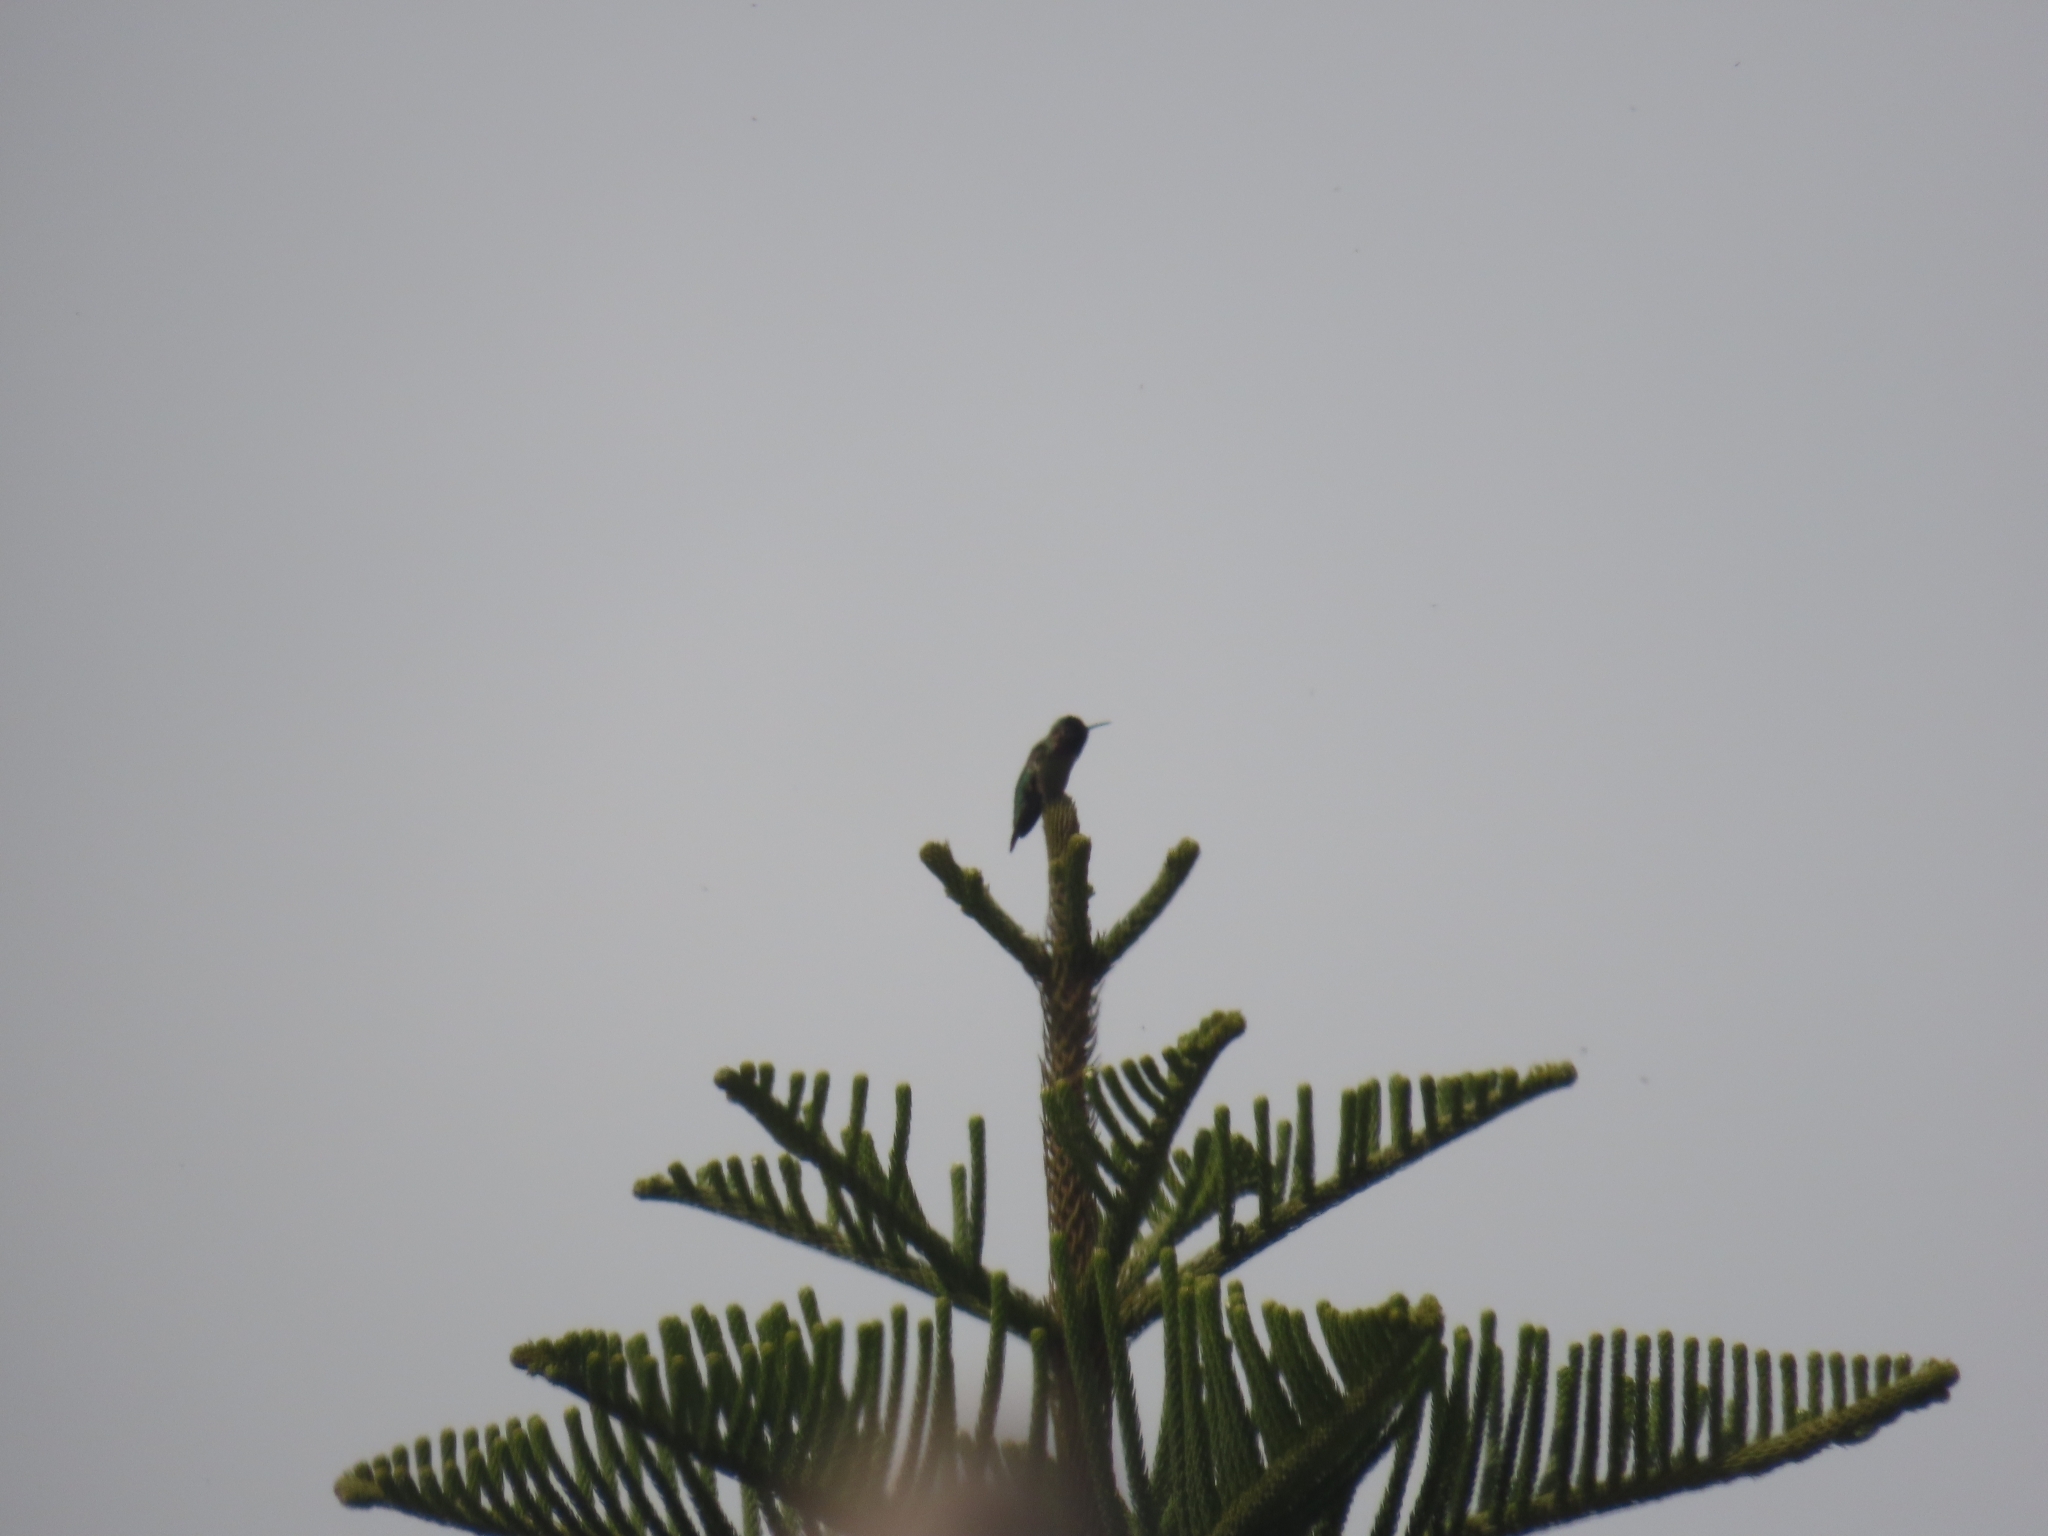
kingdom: Animalia
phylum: Chordata
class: Aves
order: Apodiformes
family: Trochilidae
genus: Calypte
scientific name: Calypte anna
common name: Anna's hummingbird
